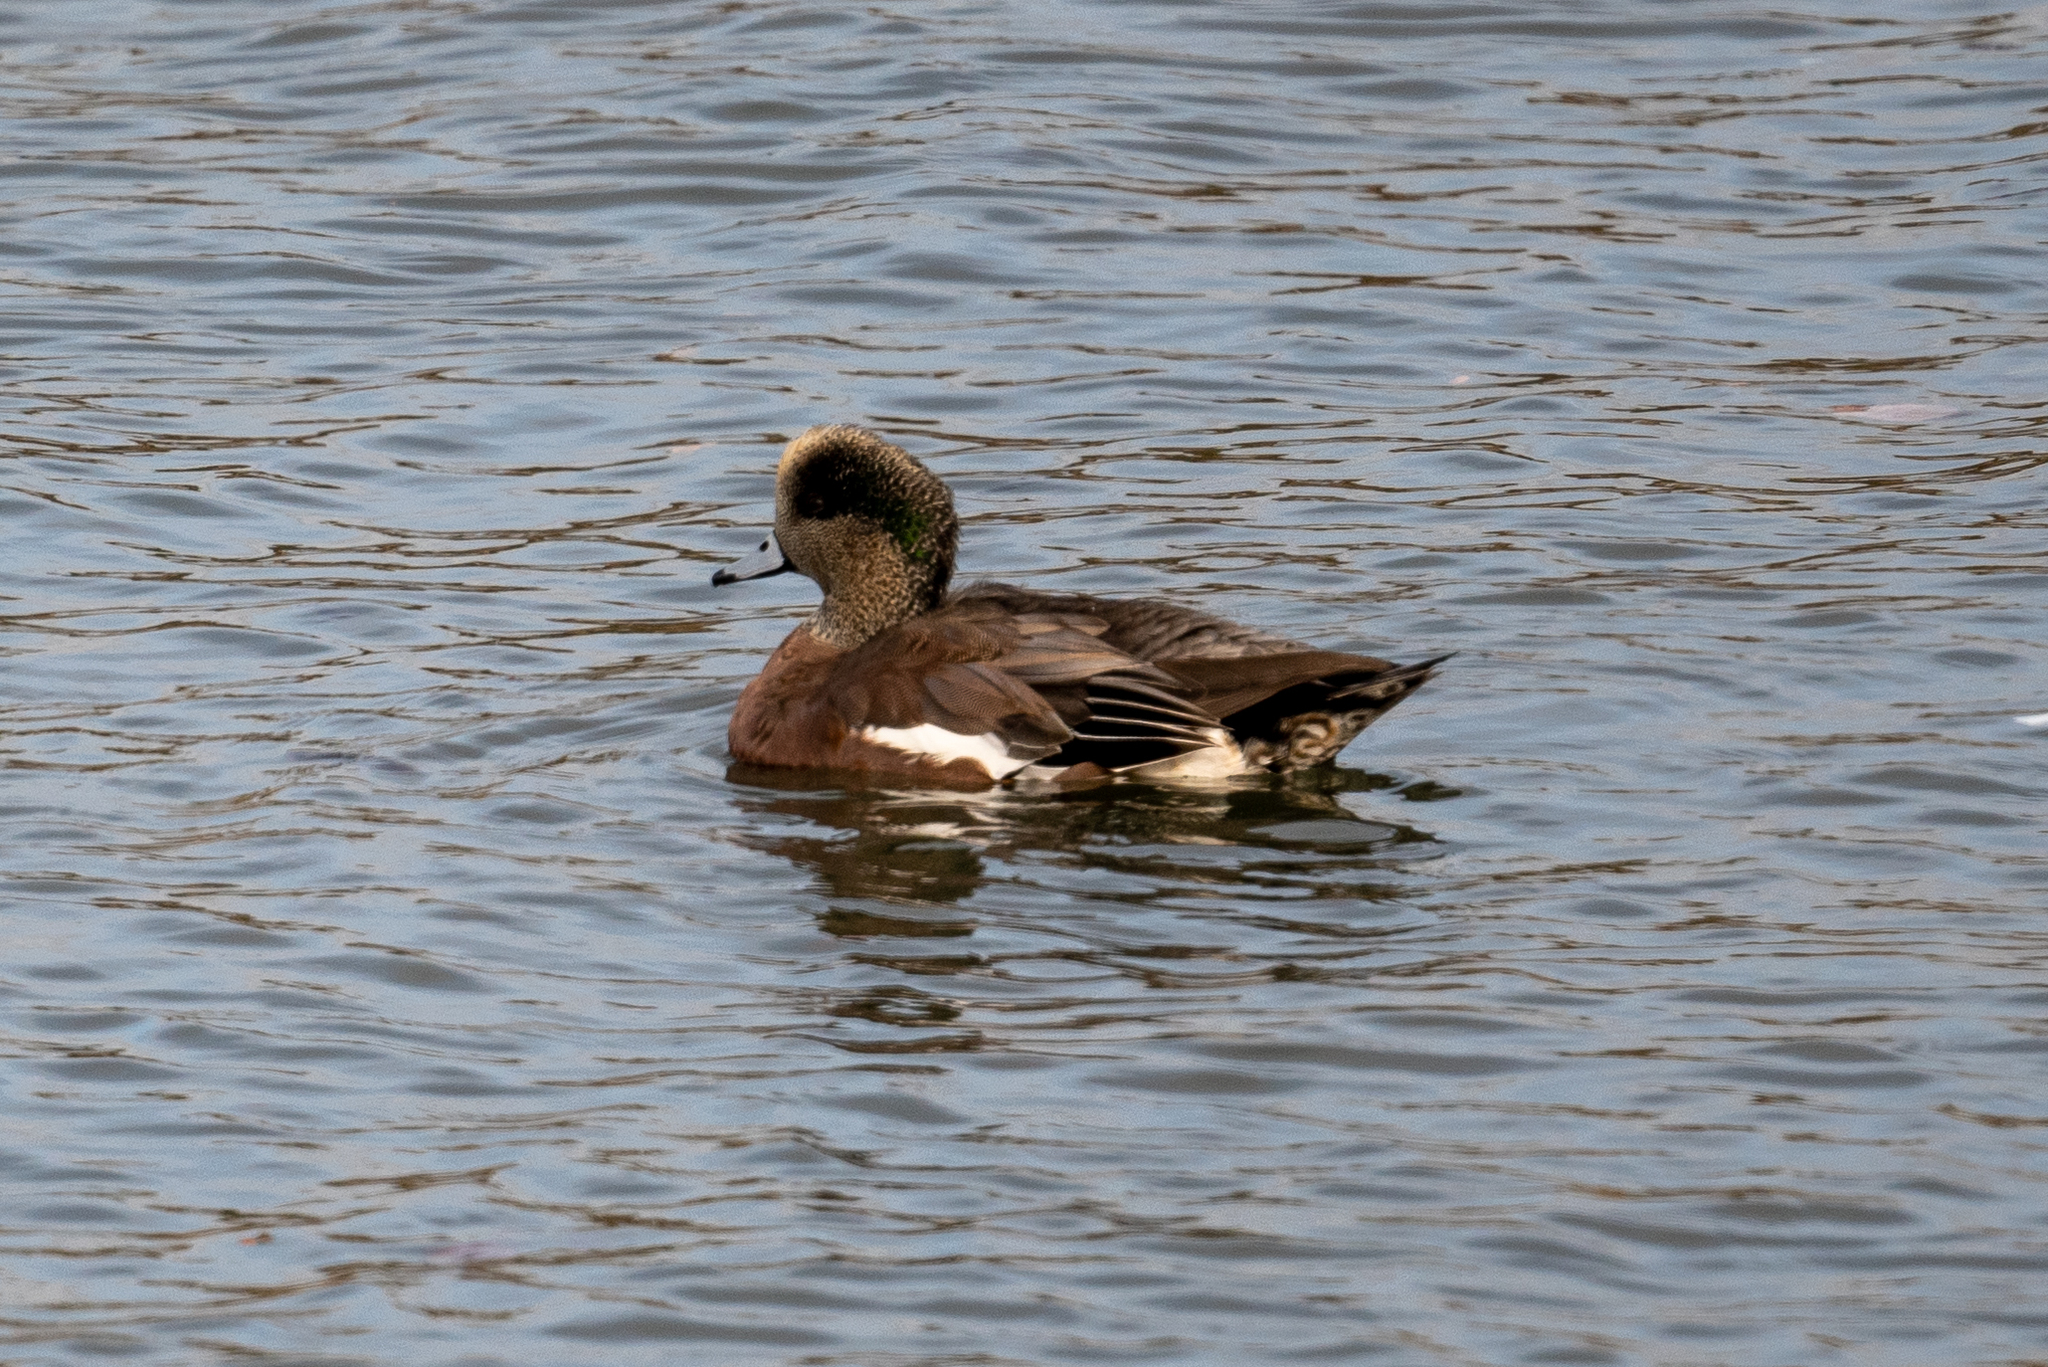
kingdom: Animalia
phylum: Chordata
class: Aves
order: Anseriformes
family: Anatidae
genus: Mareca
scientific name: Mareca americana
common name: American wigeon
